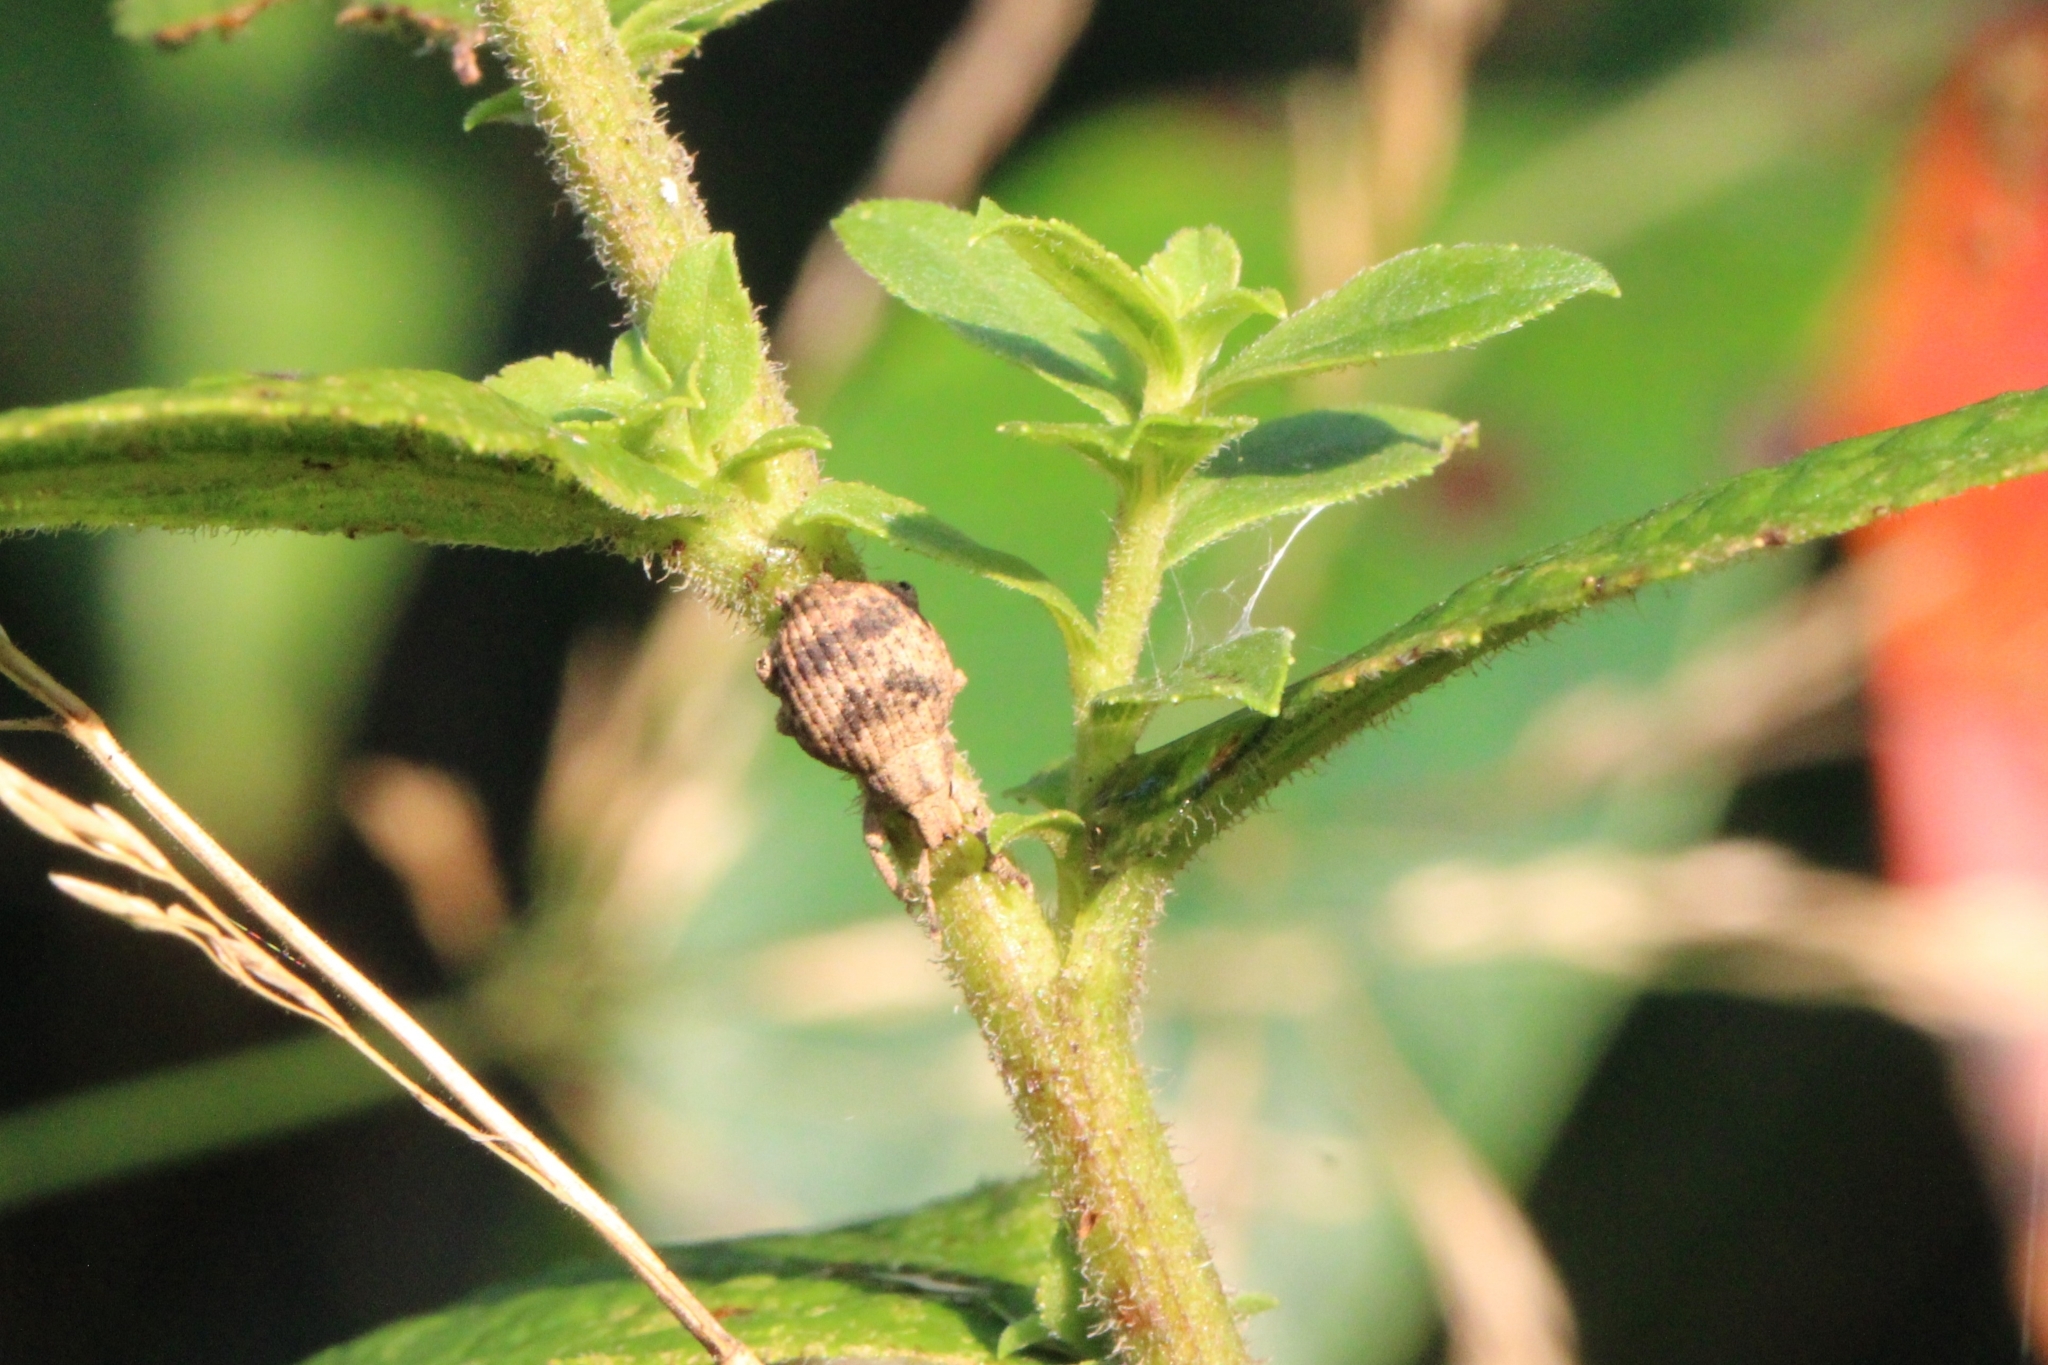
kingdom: Animalia
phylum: Arthropoda
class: Insecta
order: Coleoptera
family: Curculionidae
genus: Pseudocneorhinus
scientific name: Pseudocneorhinus bifasciatus
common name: Two-banded japanese weevil
